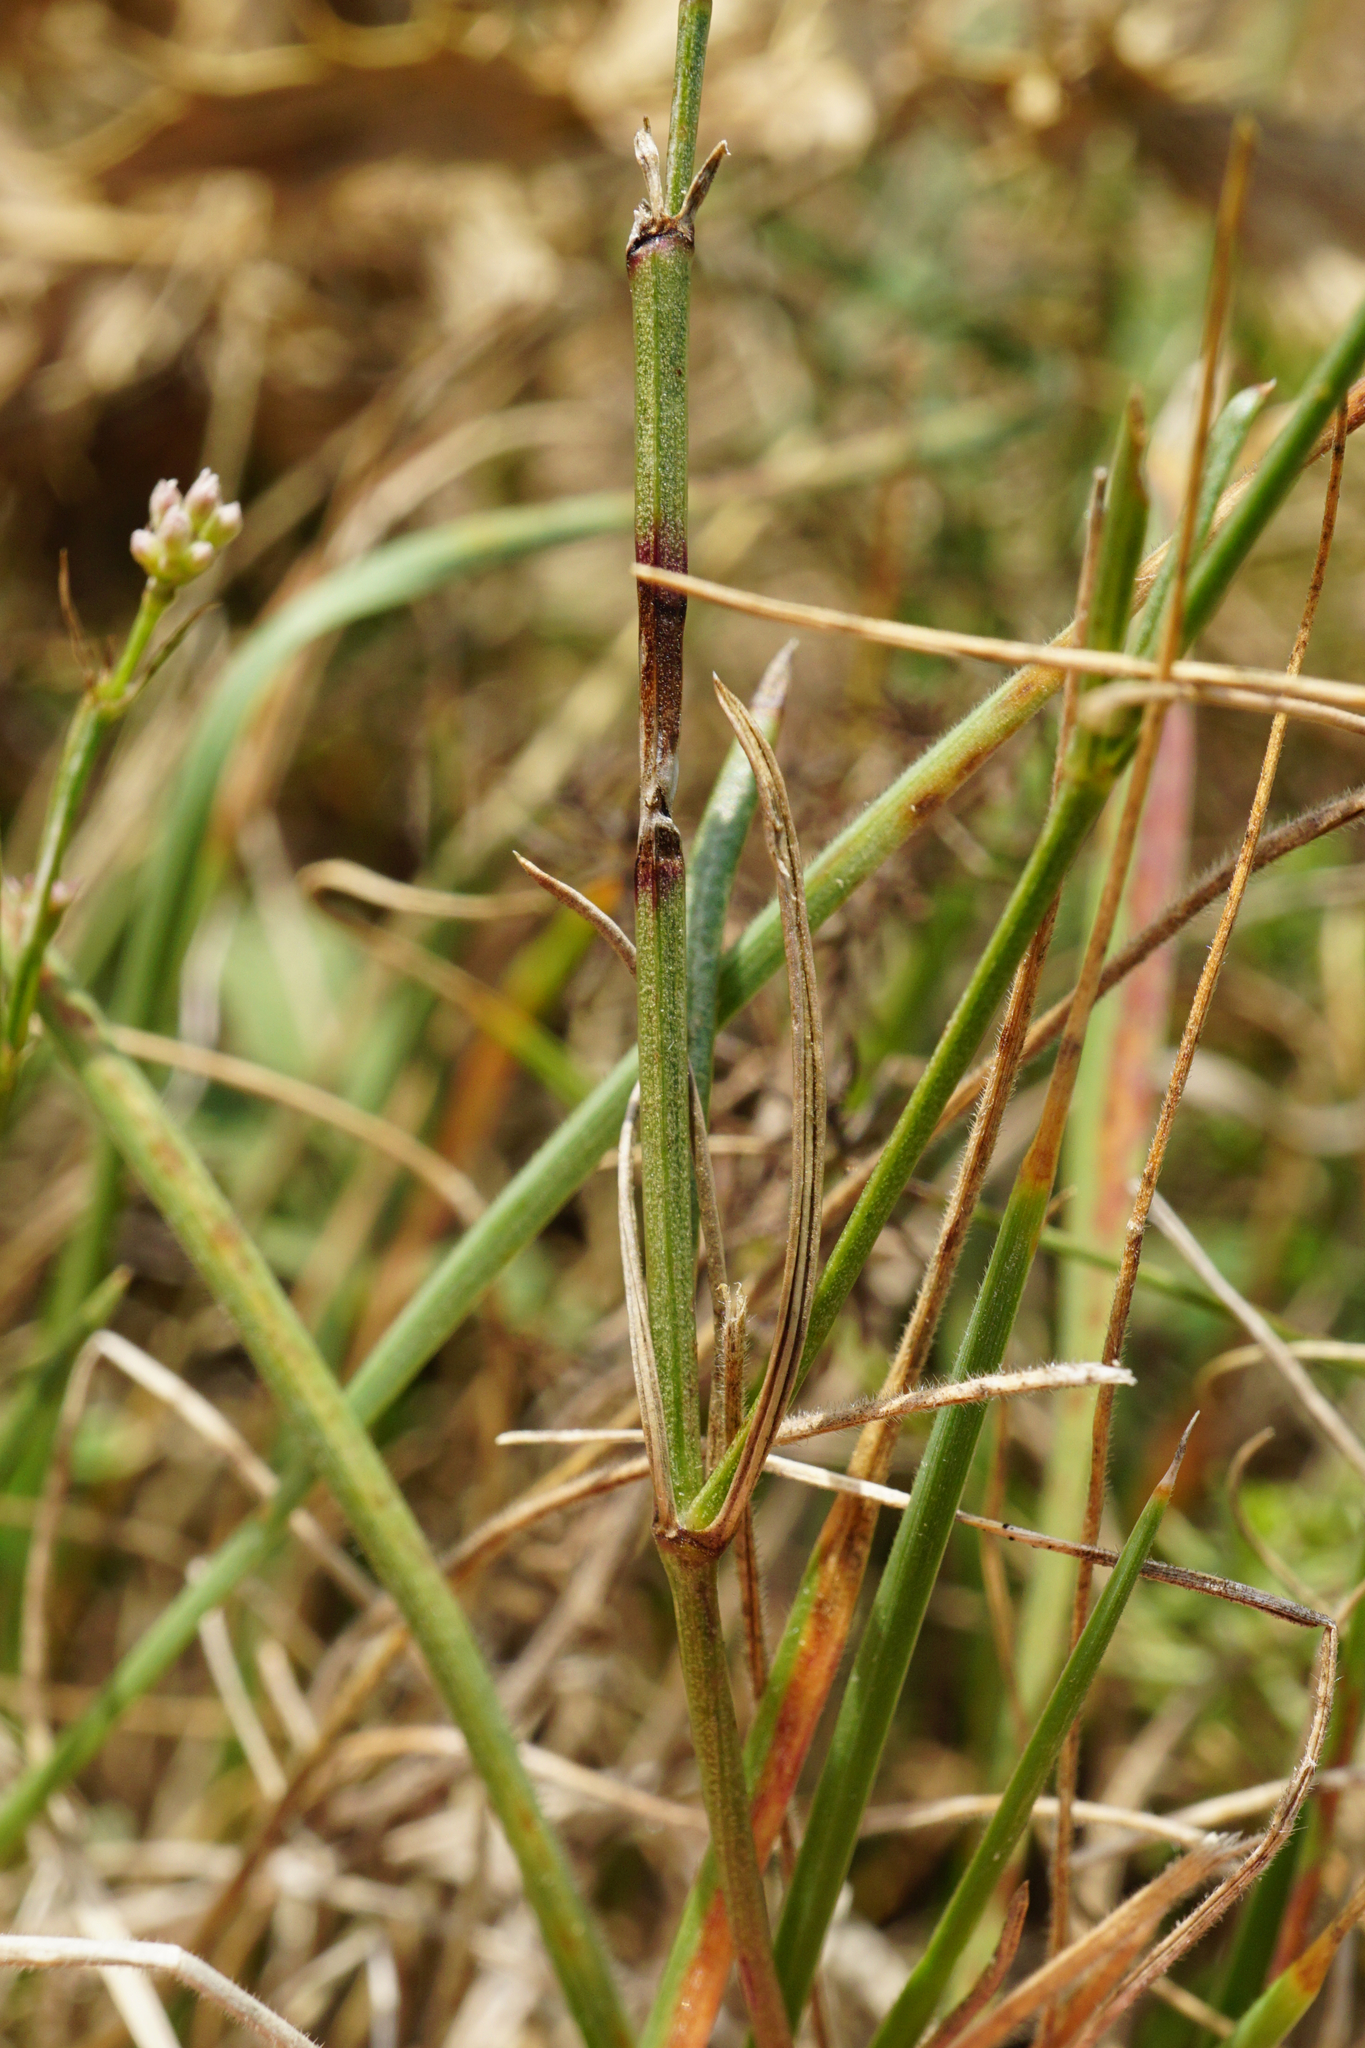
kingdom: Plantae
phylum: Tracheophyta
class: Magnoliopsida
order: Gentianales
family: Rubiaceae
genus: Cynanchica
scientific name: Cynanchica pyrenaica
